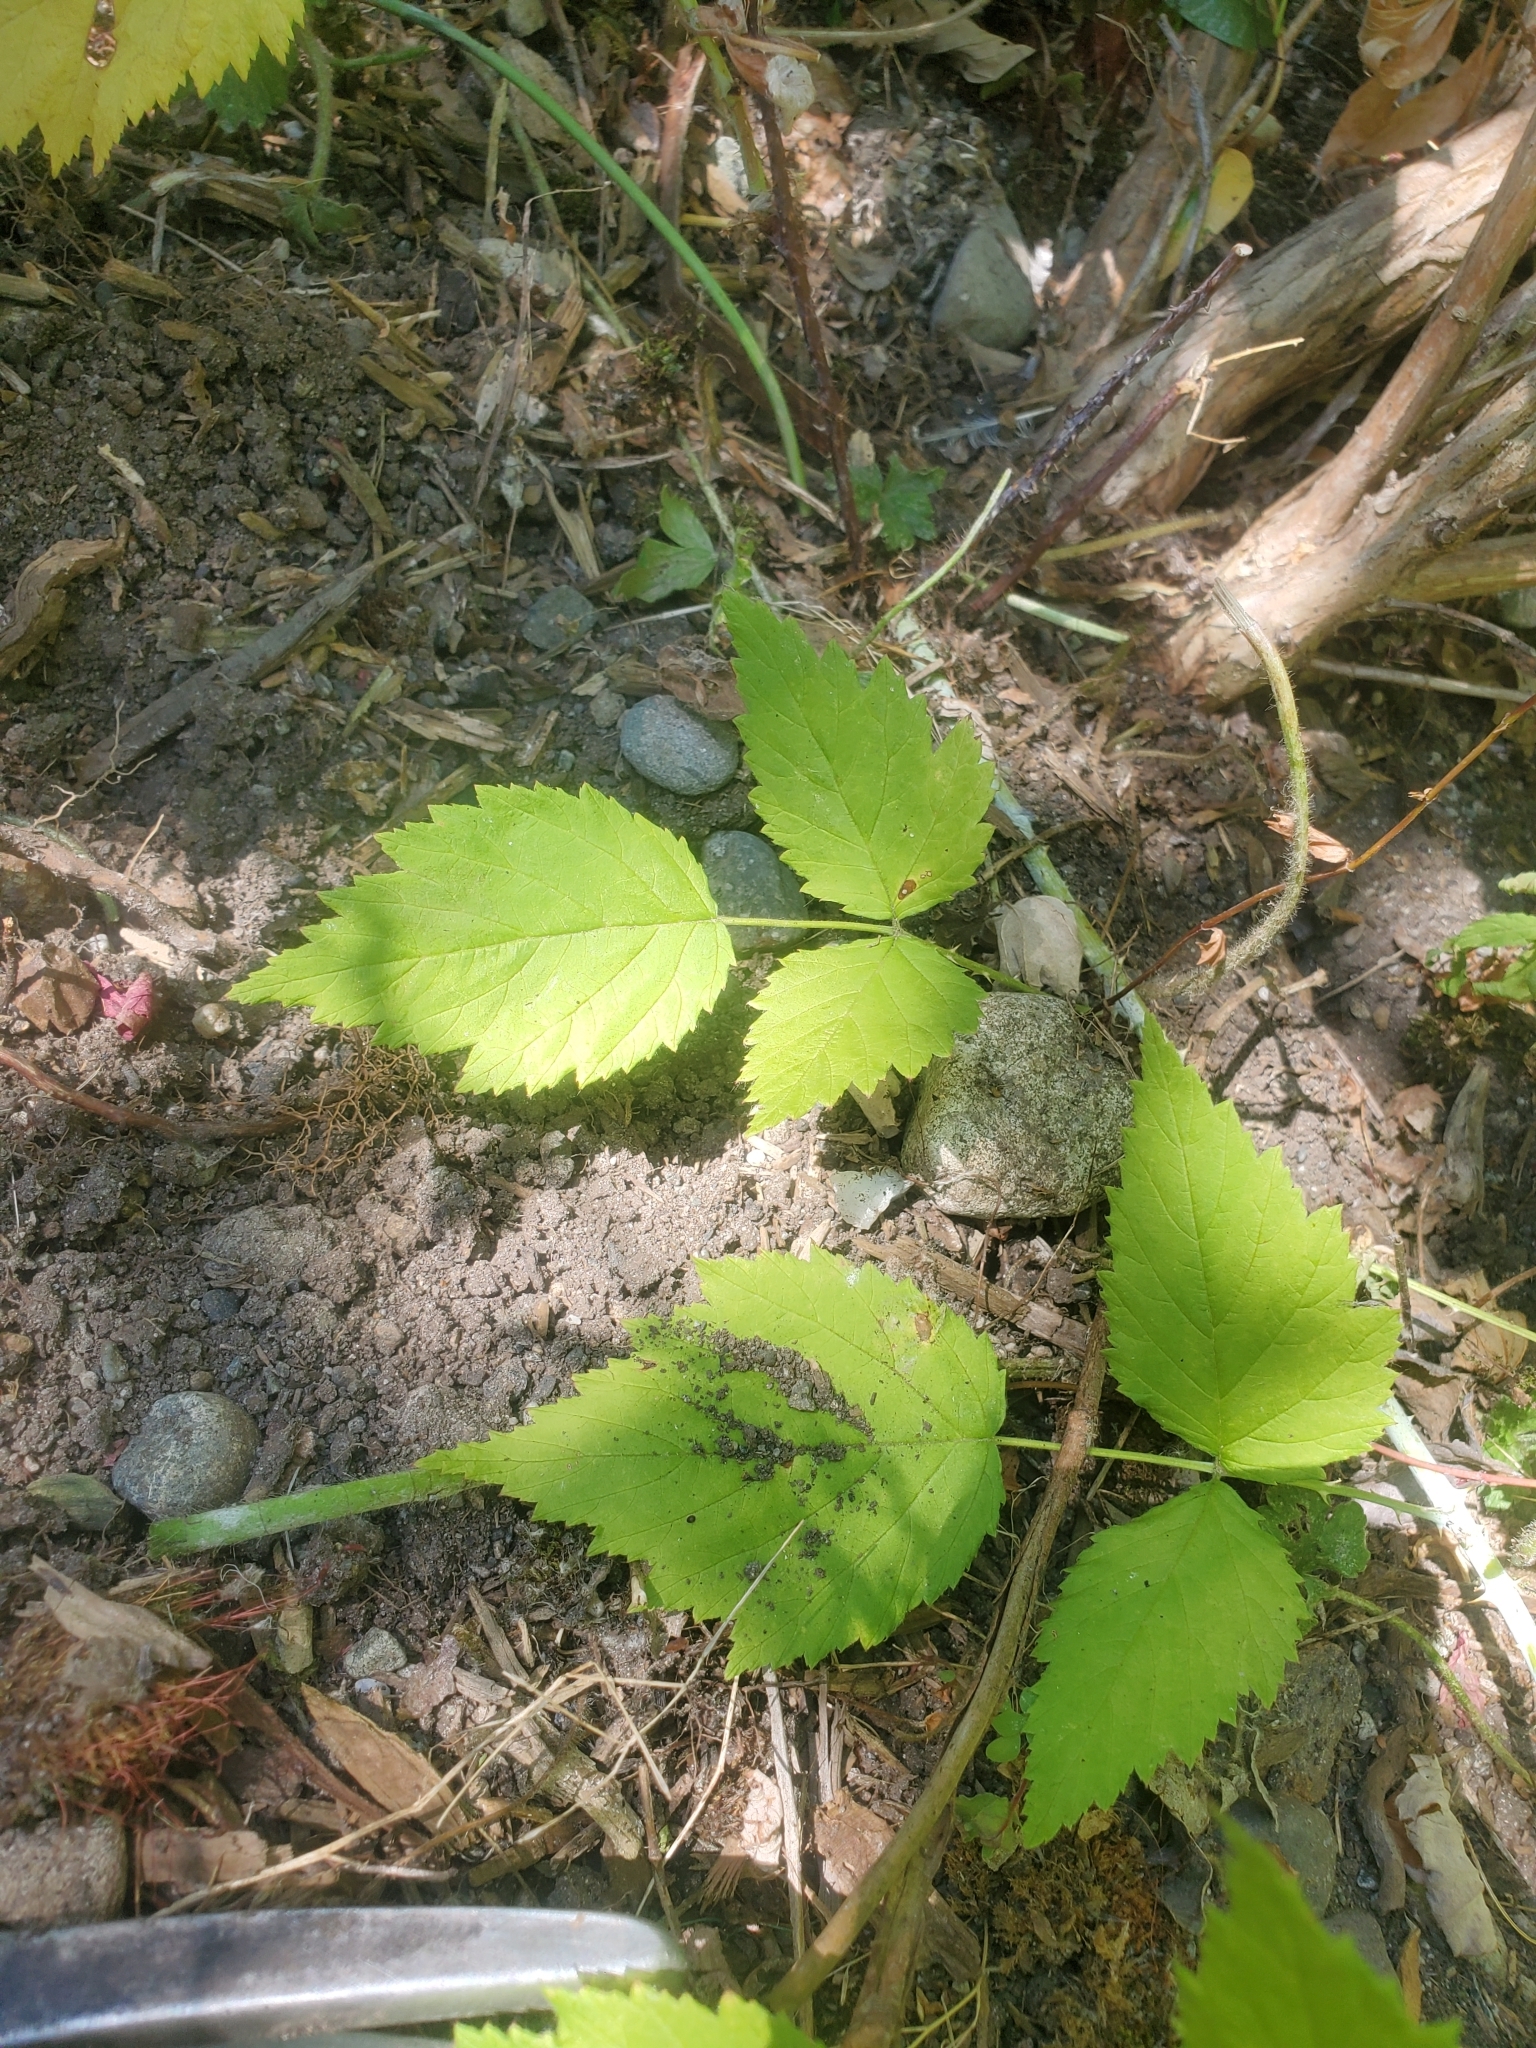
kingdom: Plantae
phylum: Tracheophyta
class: Magnoliopsida
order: Rosales
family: Rosaceae
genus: Rubus
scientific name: Rubus leucodermis
